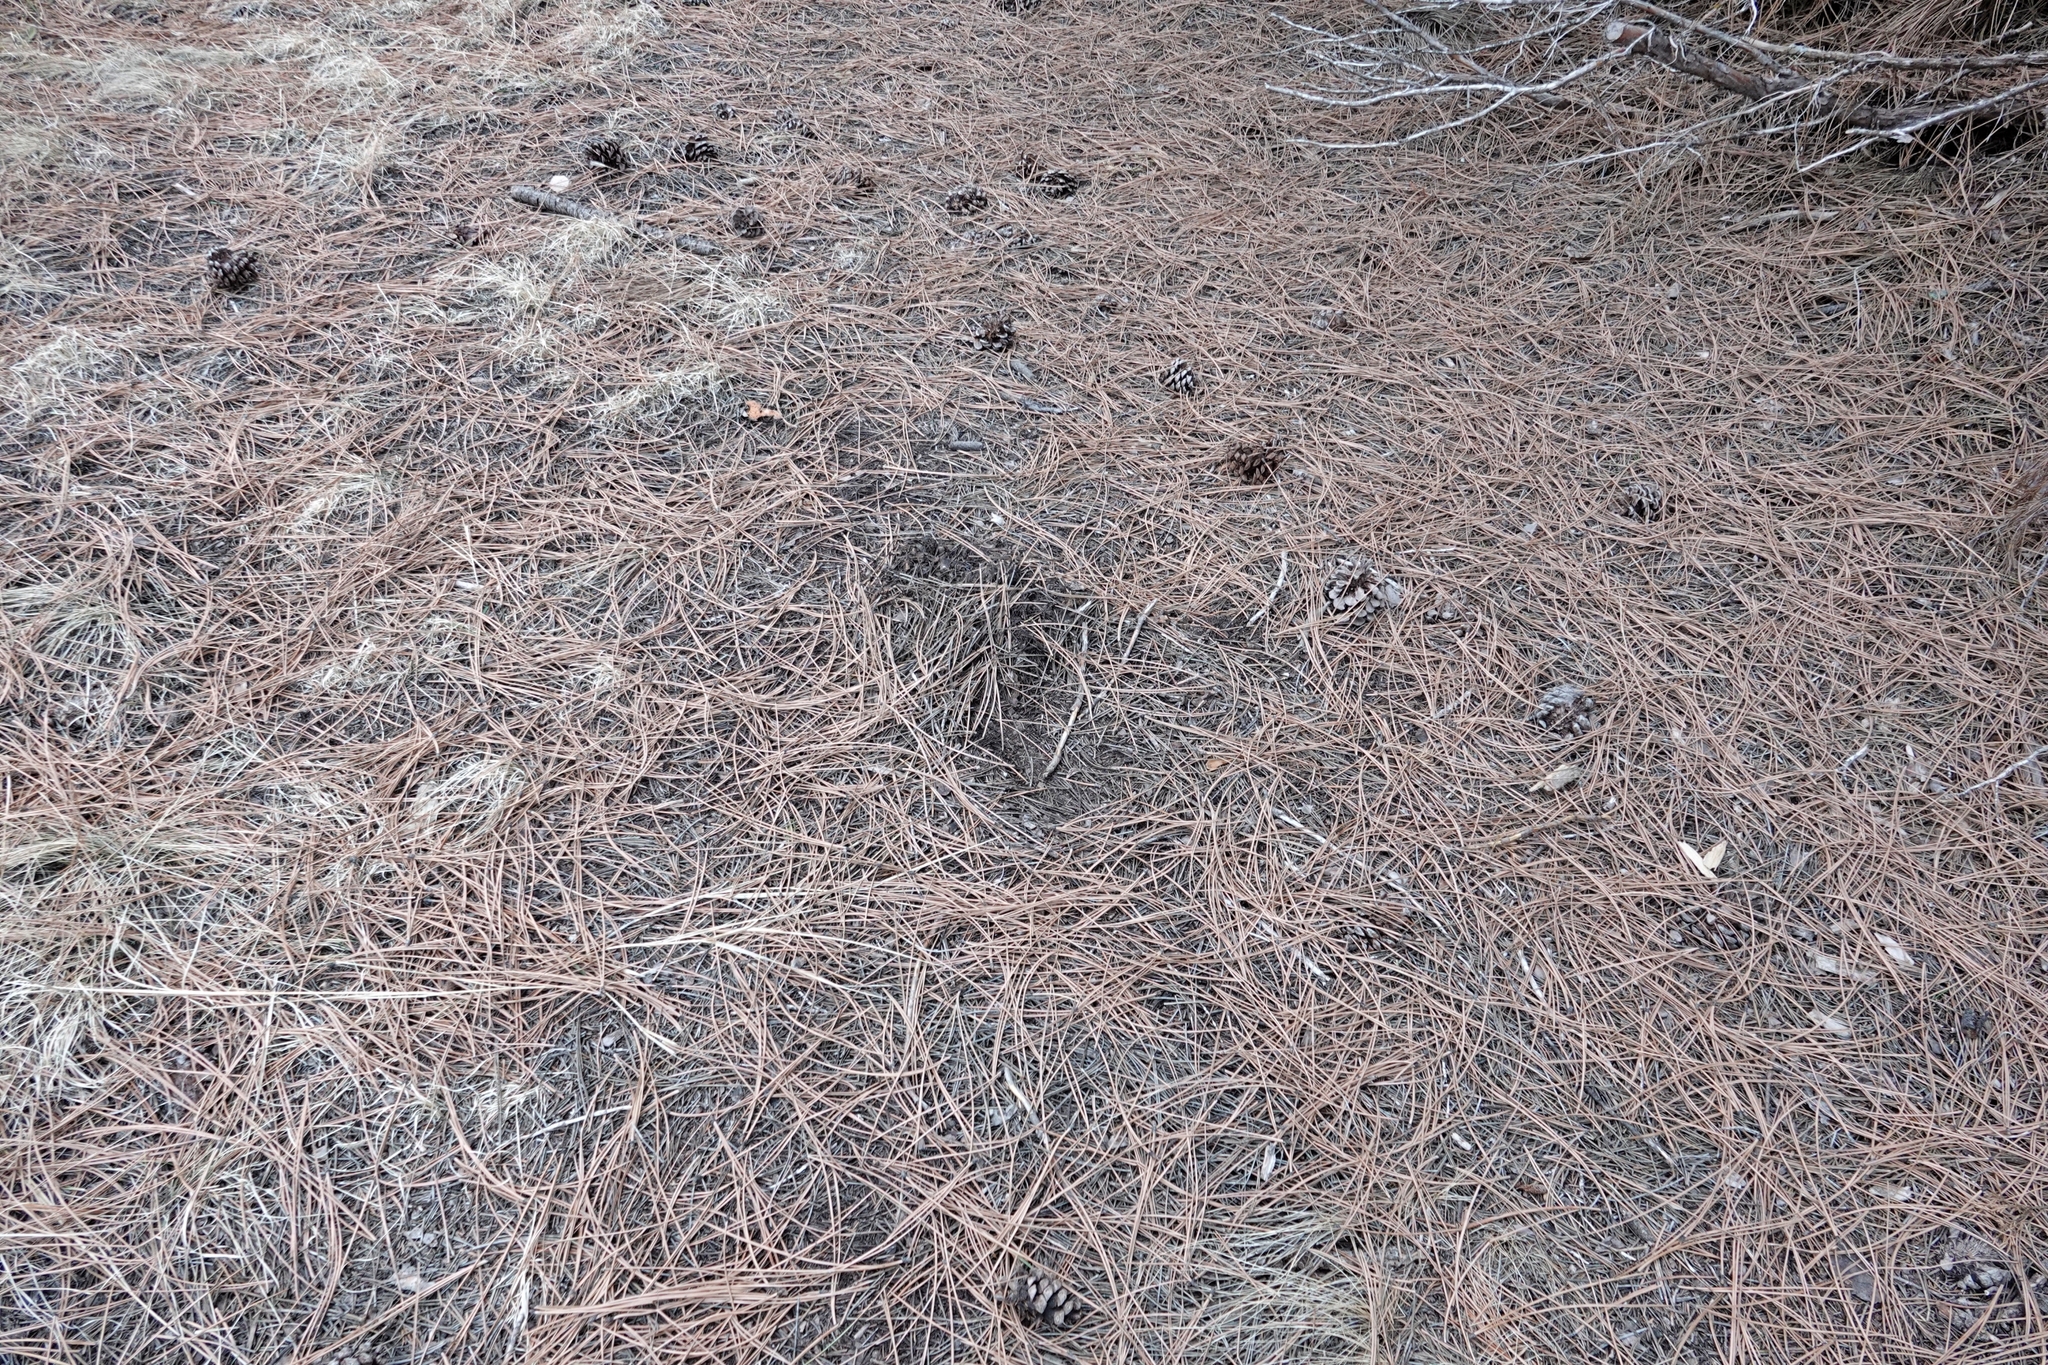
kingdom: Animalia
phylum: Chordata
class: Mammalia
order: Carnivora
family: Felidae
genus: Puma
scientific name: Puma concolor
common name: Puma
